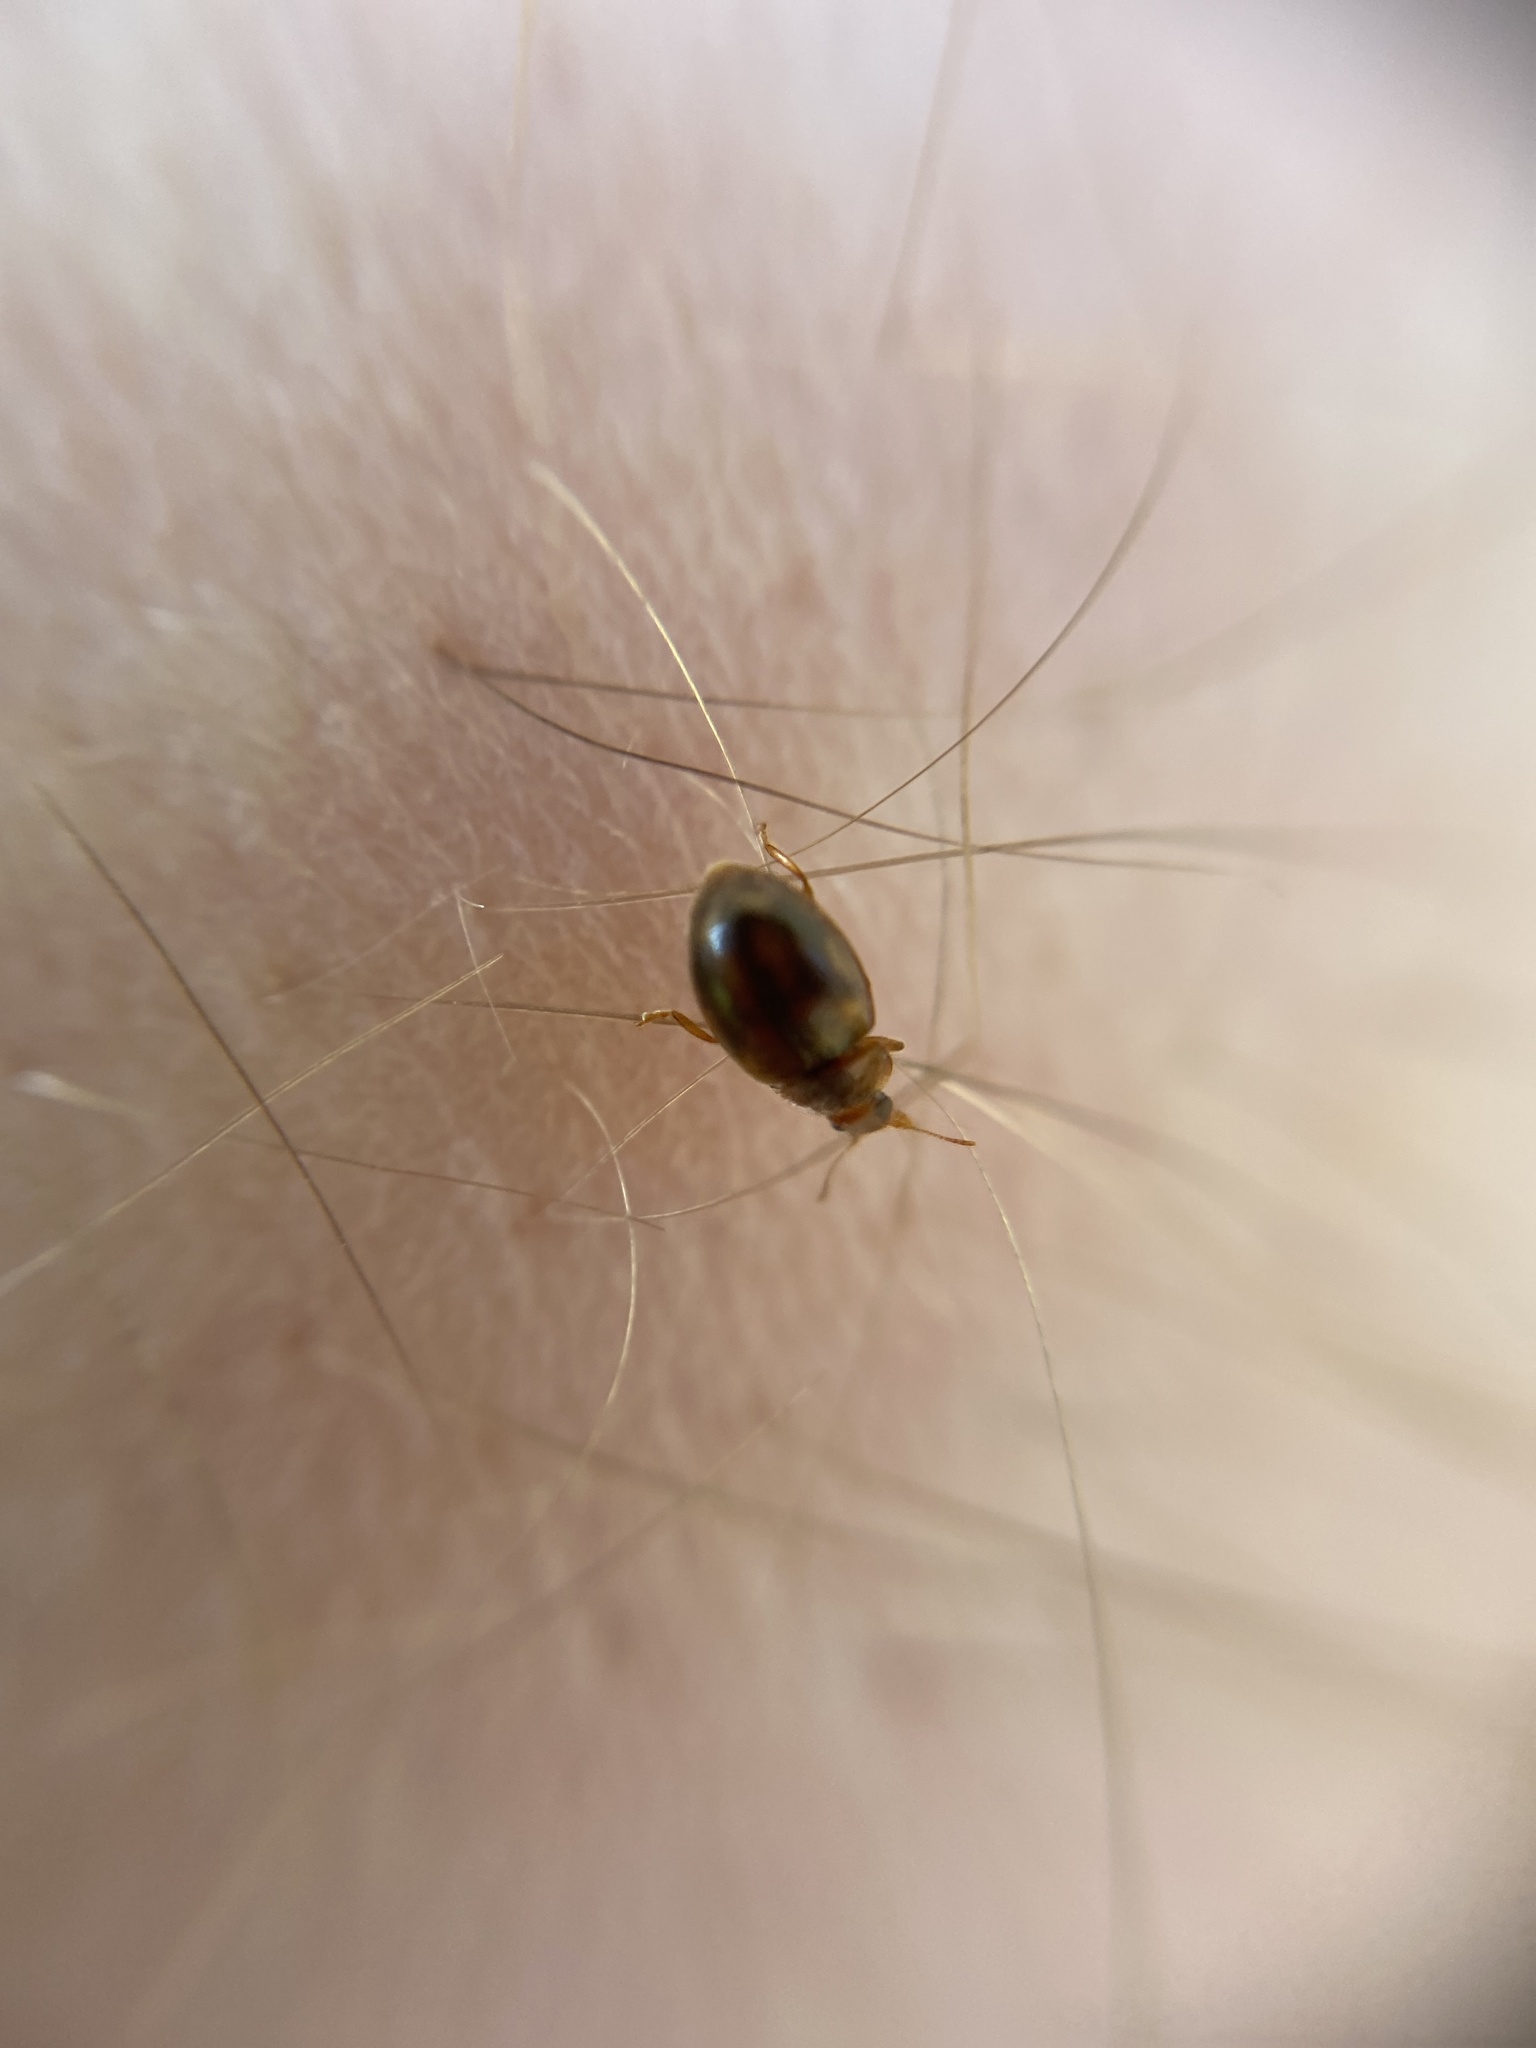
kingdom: Animalia
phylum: Arthropoda
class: Insecta
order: Coleoptera
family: Coccinellidae
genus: Rhyzobius
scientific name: Rhyzobius chrysomeloides
